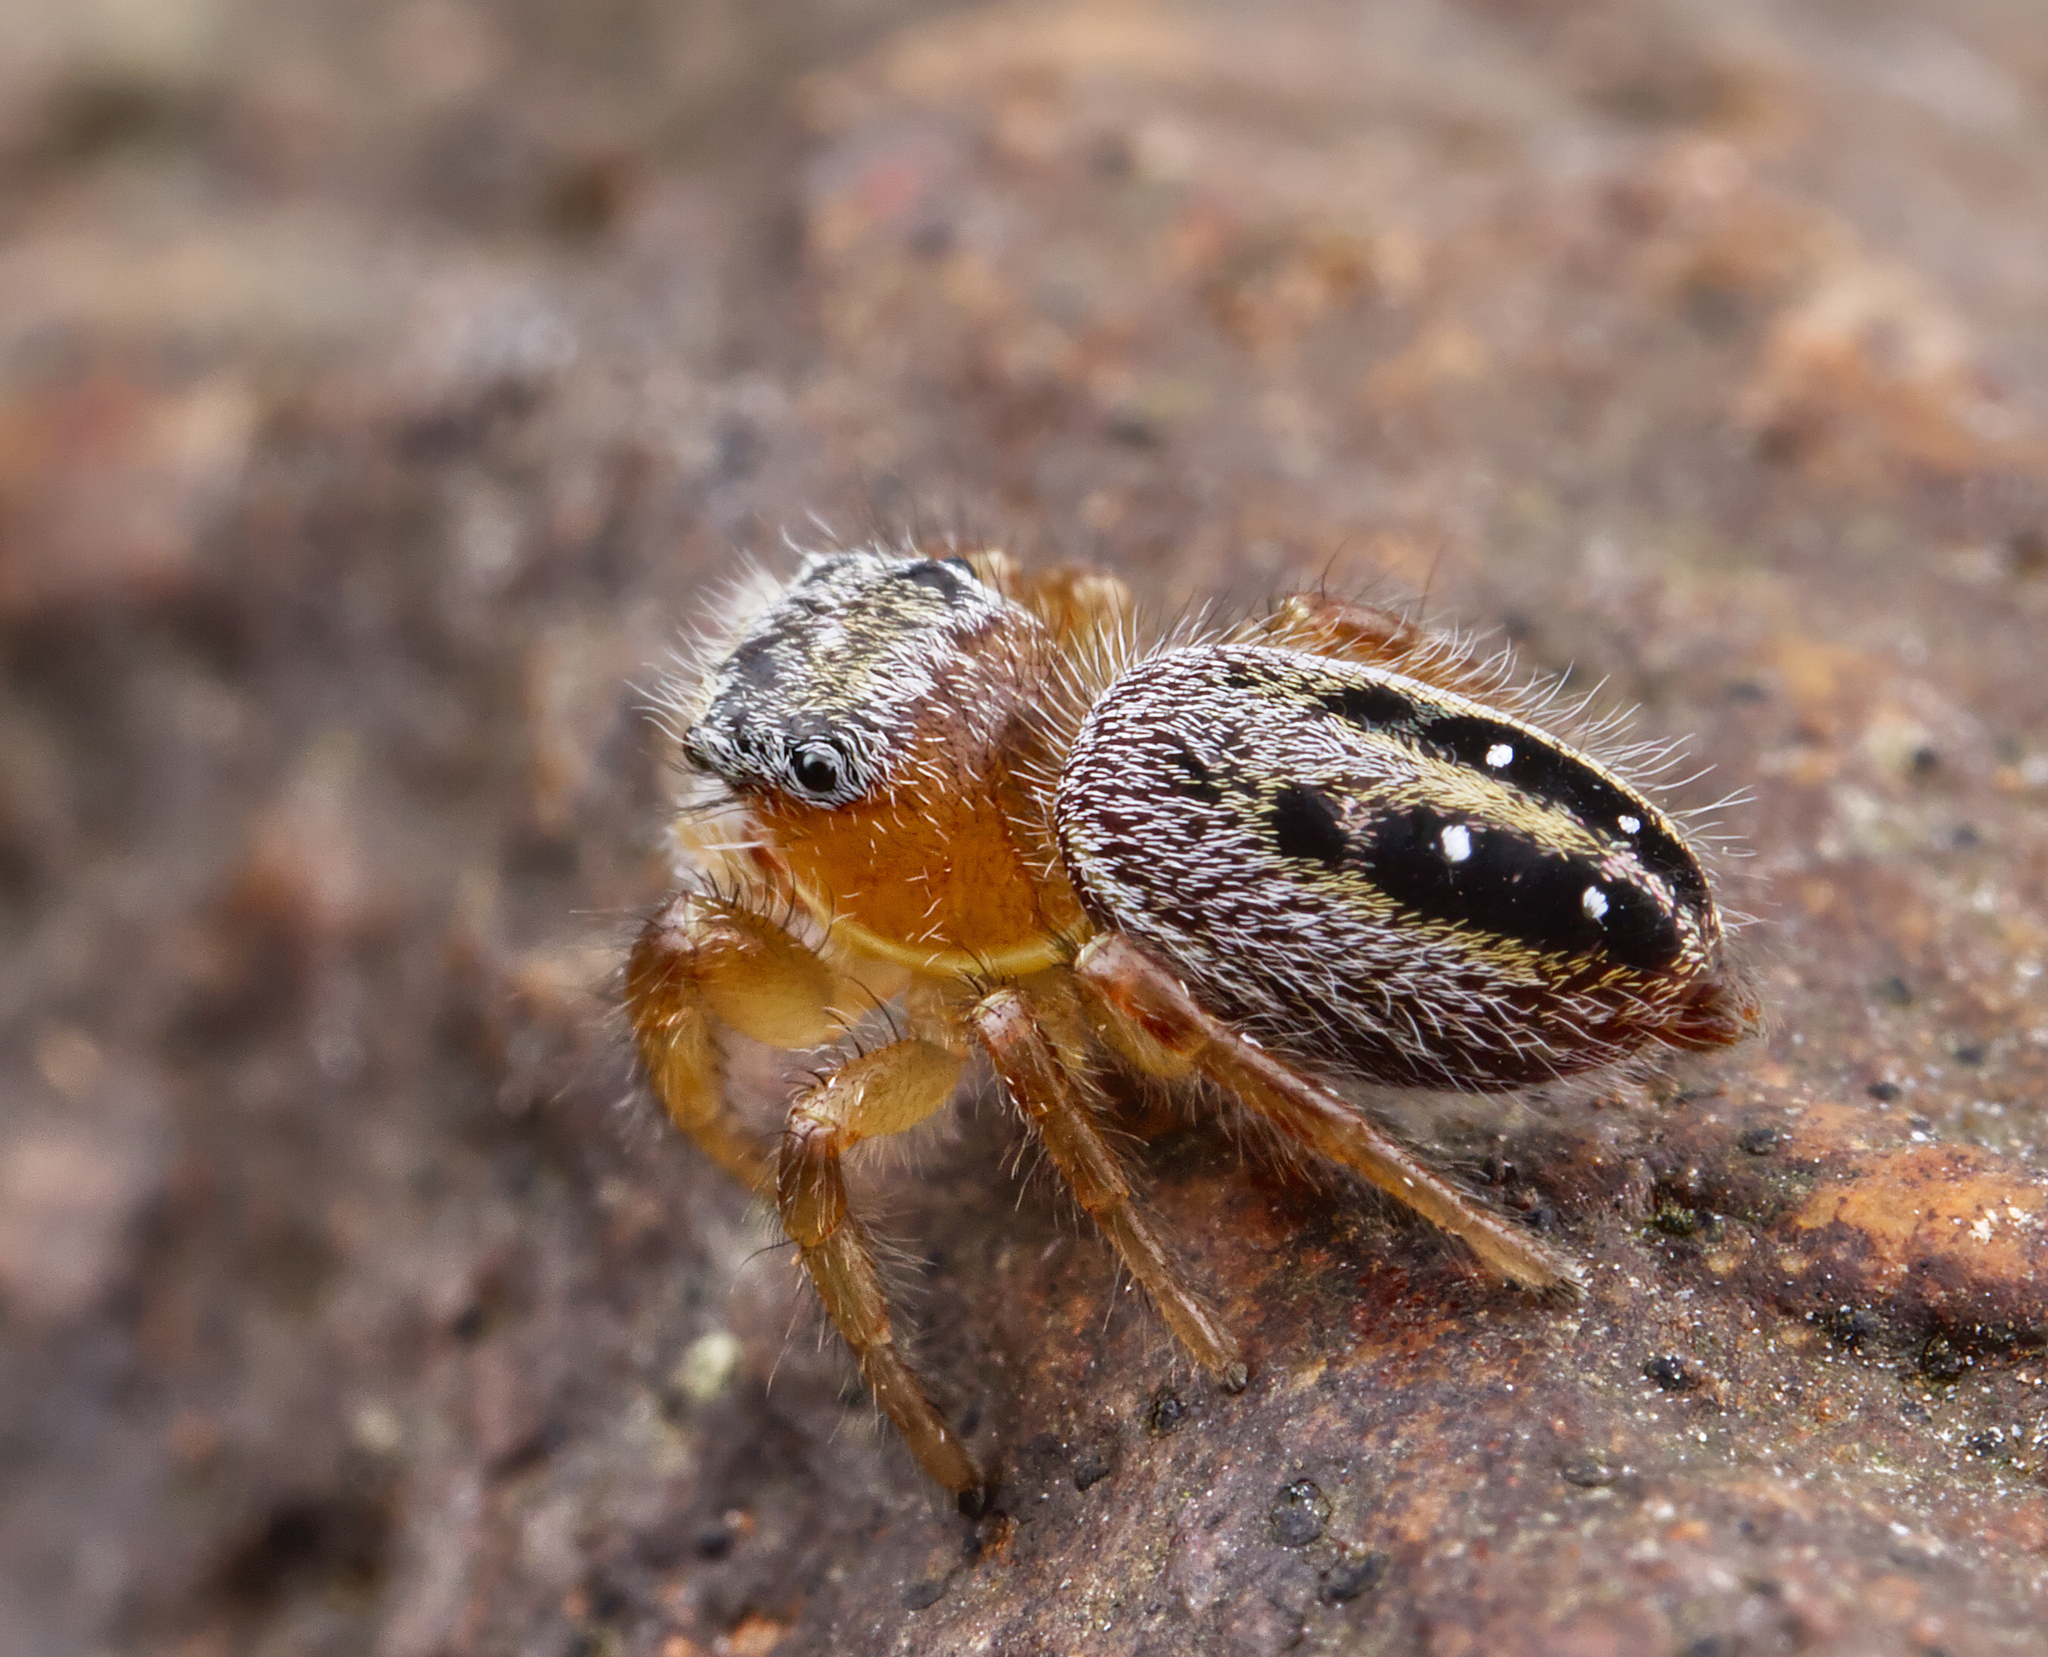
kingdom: Animalia
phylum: Arthropoda
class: Arachnida
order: Araneae
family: Salticidae
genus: Phidippus
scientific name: Phidippus pius
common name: Jumping spiders
